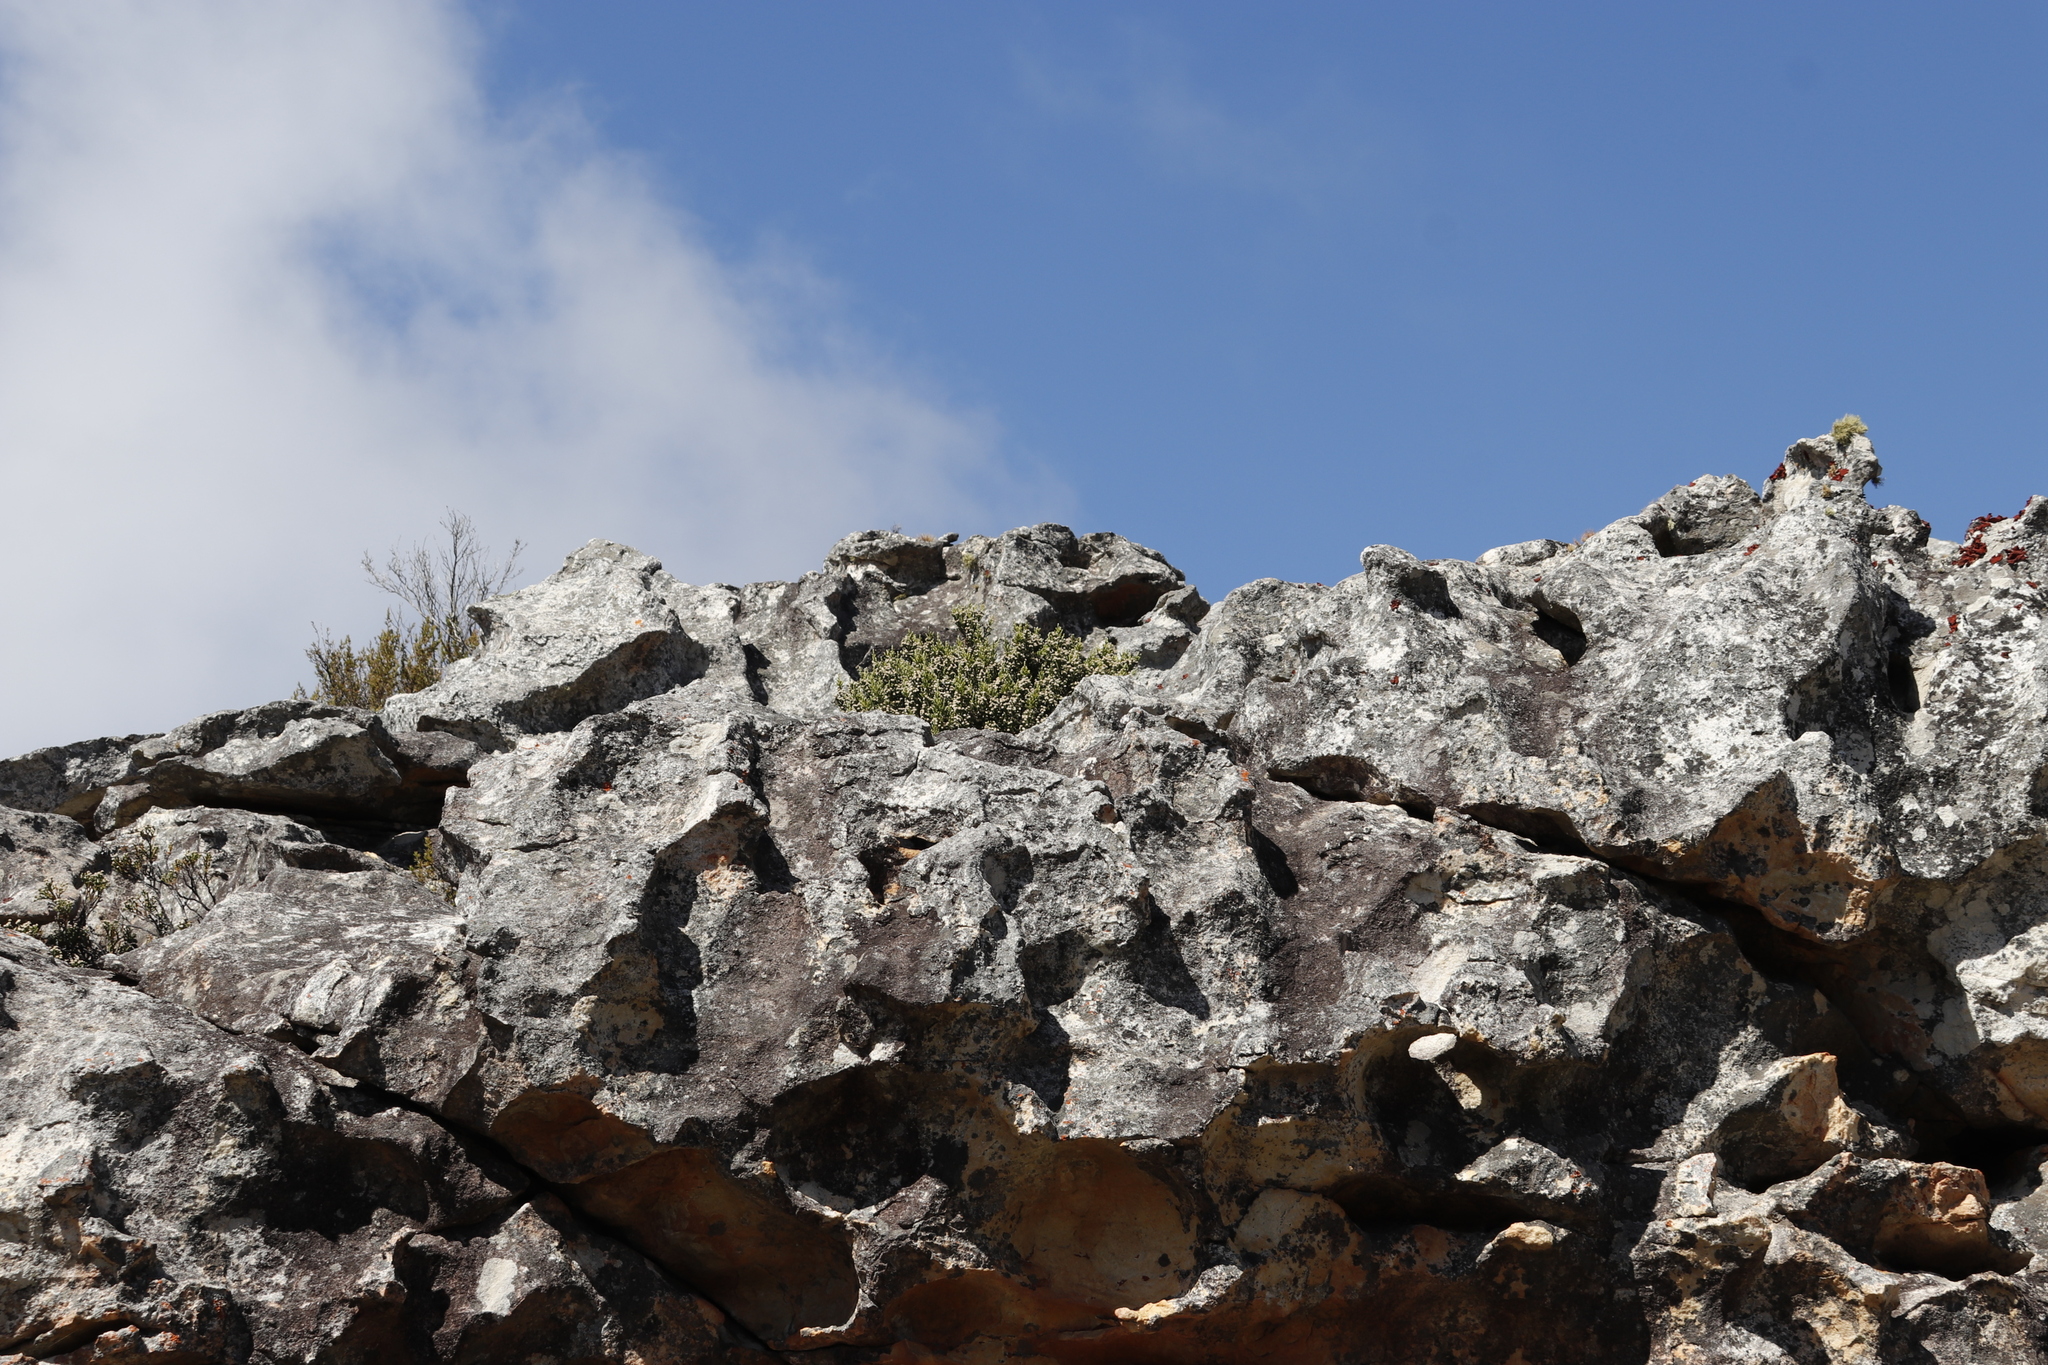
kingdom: Plantae
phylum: Tracheophyta
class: Magnoliopsida
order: Bruniales
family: Bruniaceae
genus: Brunia
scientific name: Brunia microphylla
